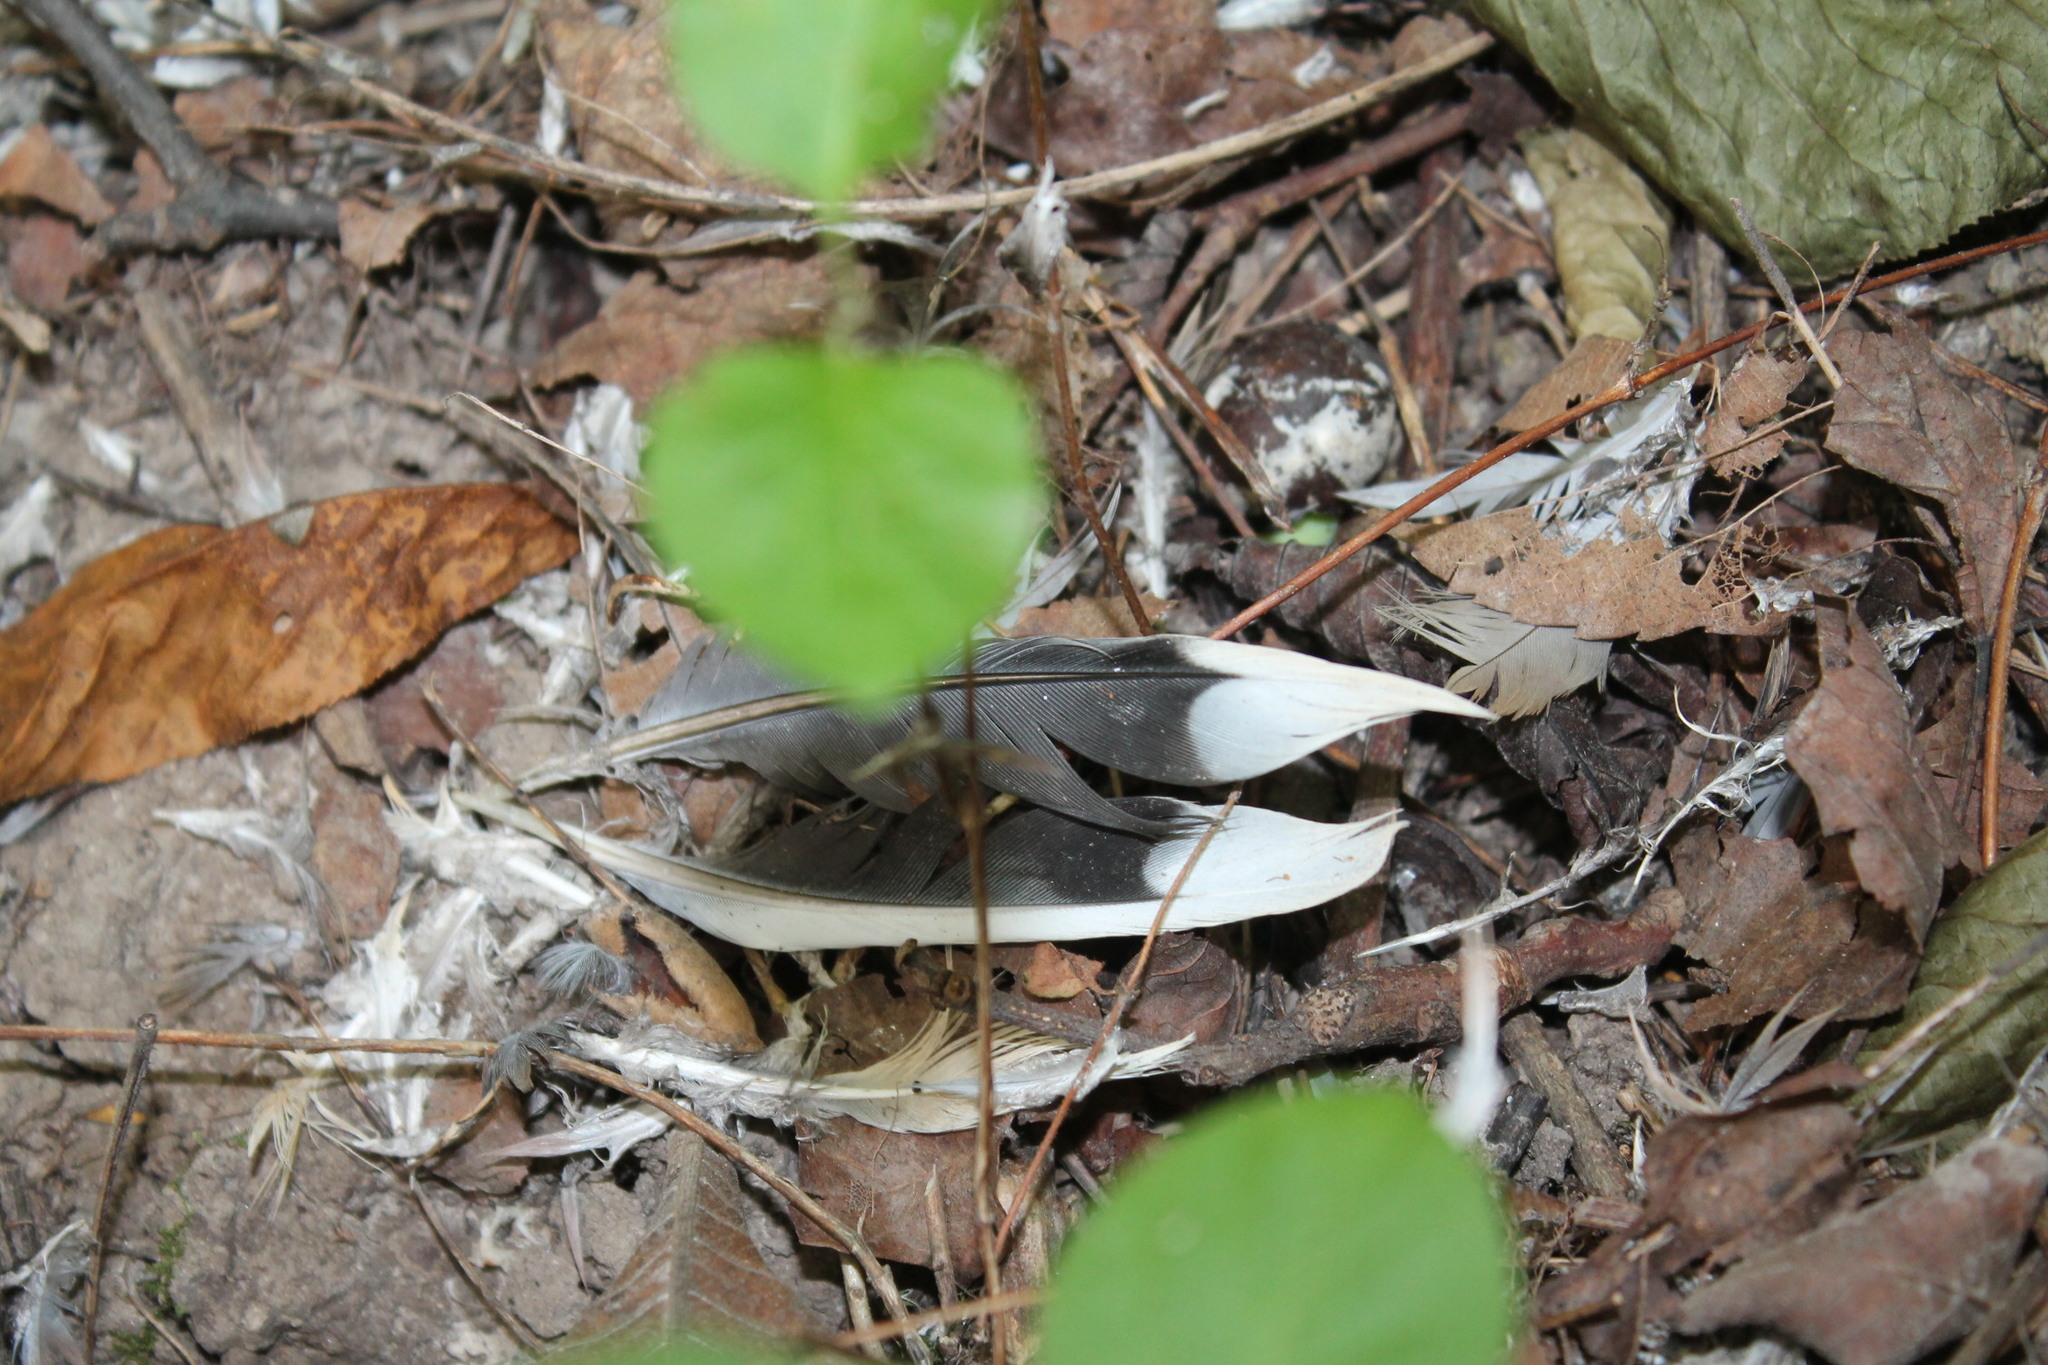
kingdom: Animalia
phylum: Chordata
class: Aves
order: Columbiformes
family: Columbidae
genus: Zenaida
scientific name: Zenaida macroura
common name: Mourning dove
